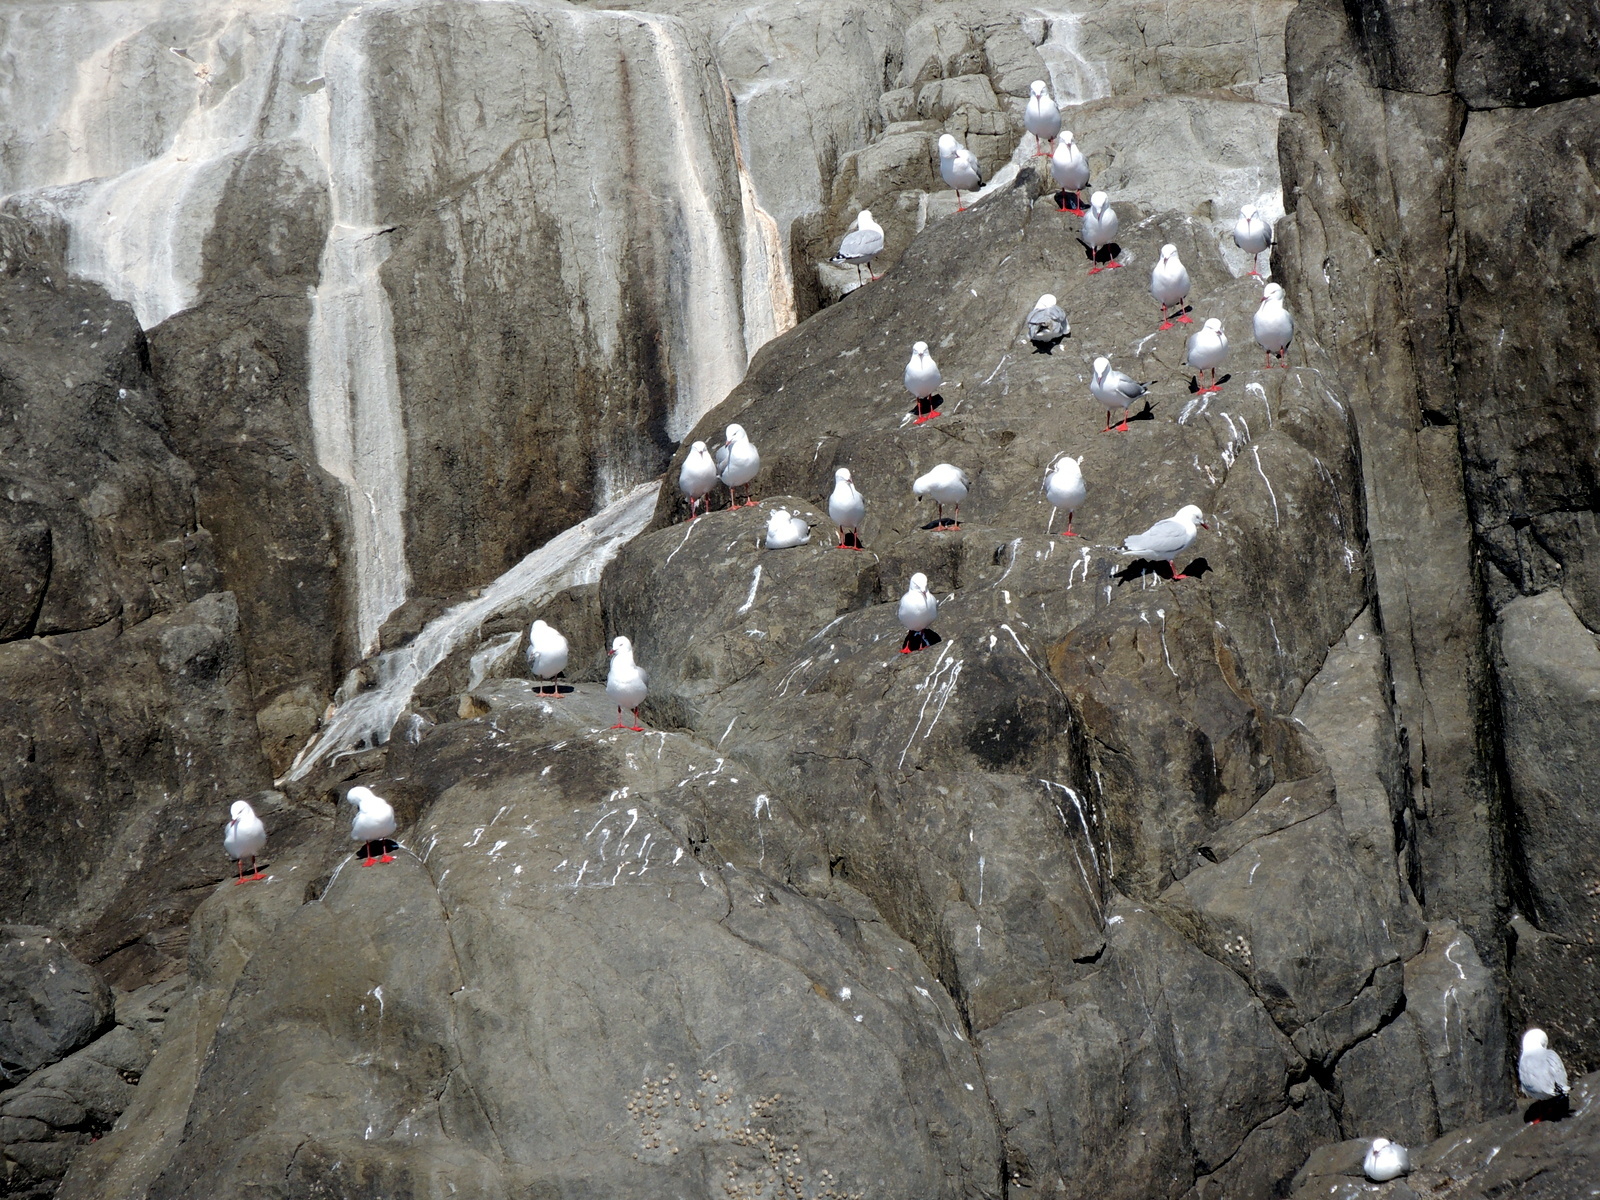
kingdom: Animalia
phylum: Chordata
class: Aves
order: Charadriiformes
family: Laridae
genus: Chroicocephalus
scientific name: Chroicocephalus novaehollandiae
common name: Silver gull
